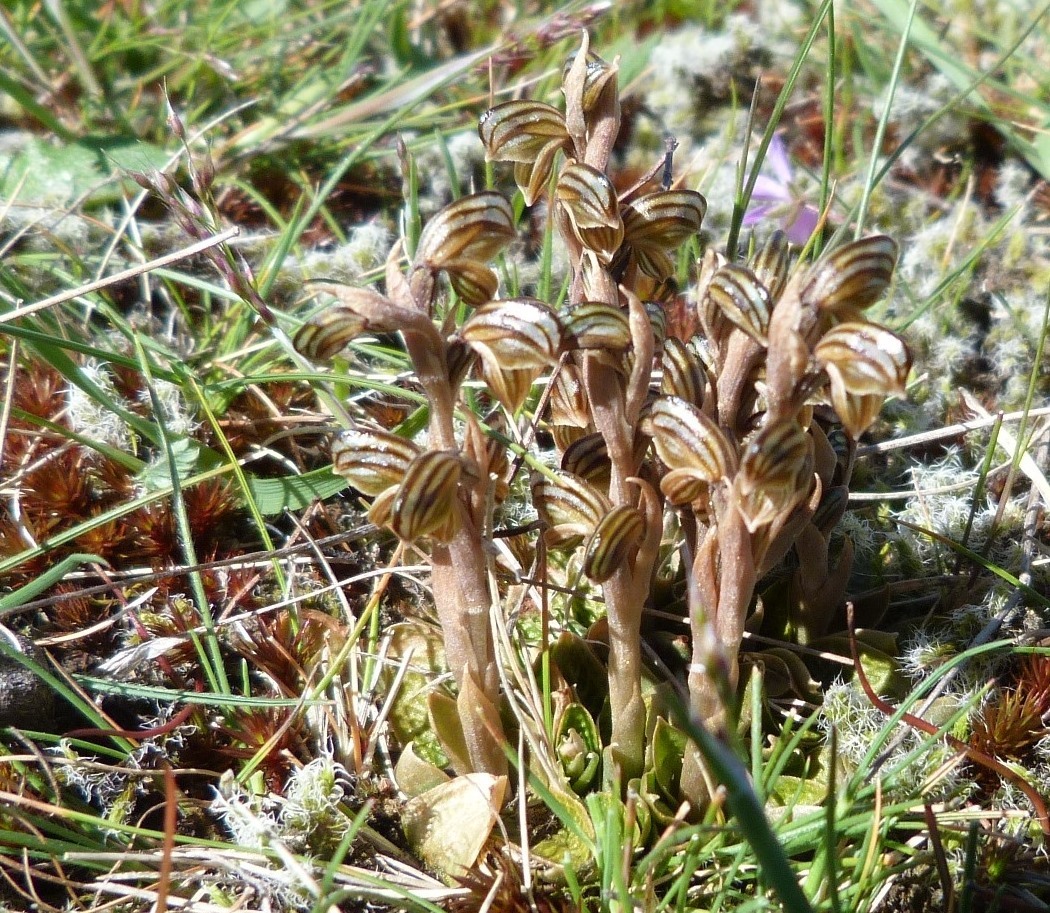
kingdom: Plantae
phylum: Tracheophyta
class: Liliopsida
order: Asparagales
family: Orchidaceae
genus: Pterostylis
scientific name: Pterostylis tristis
